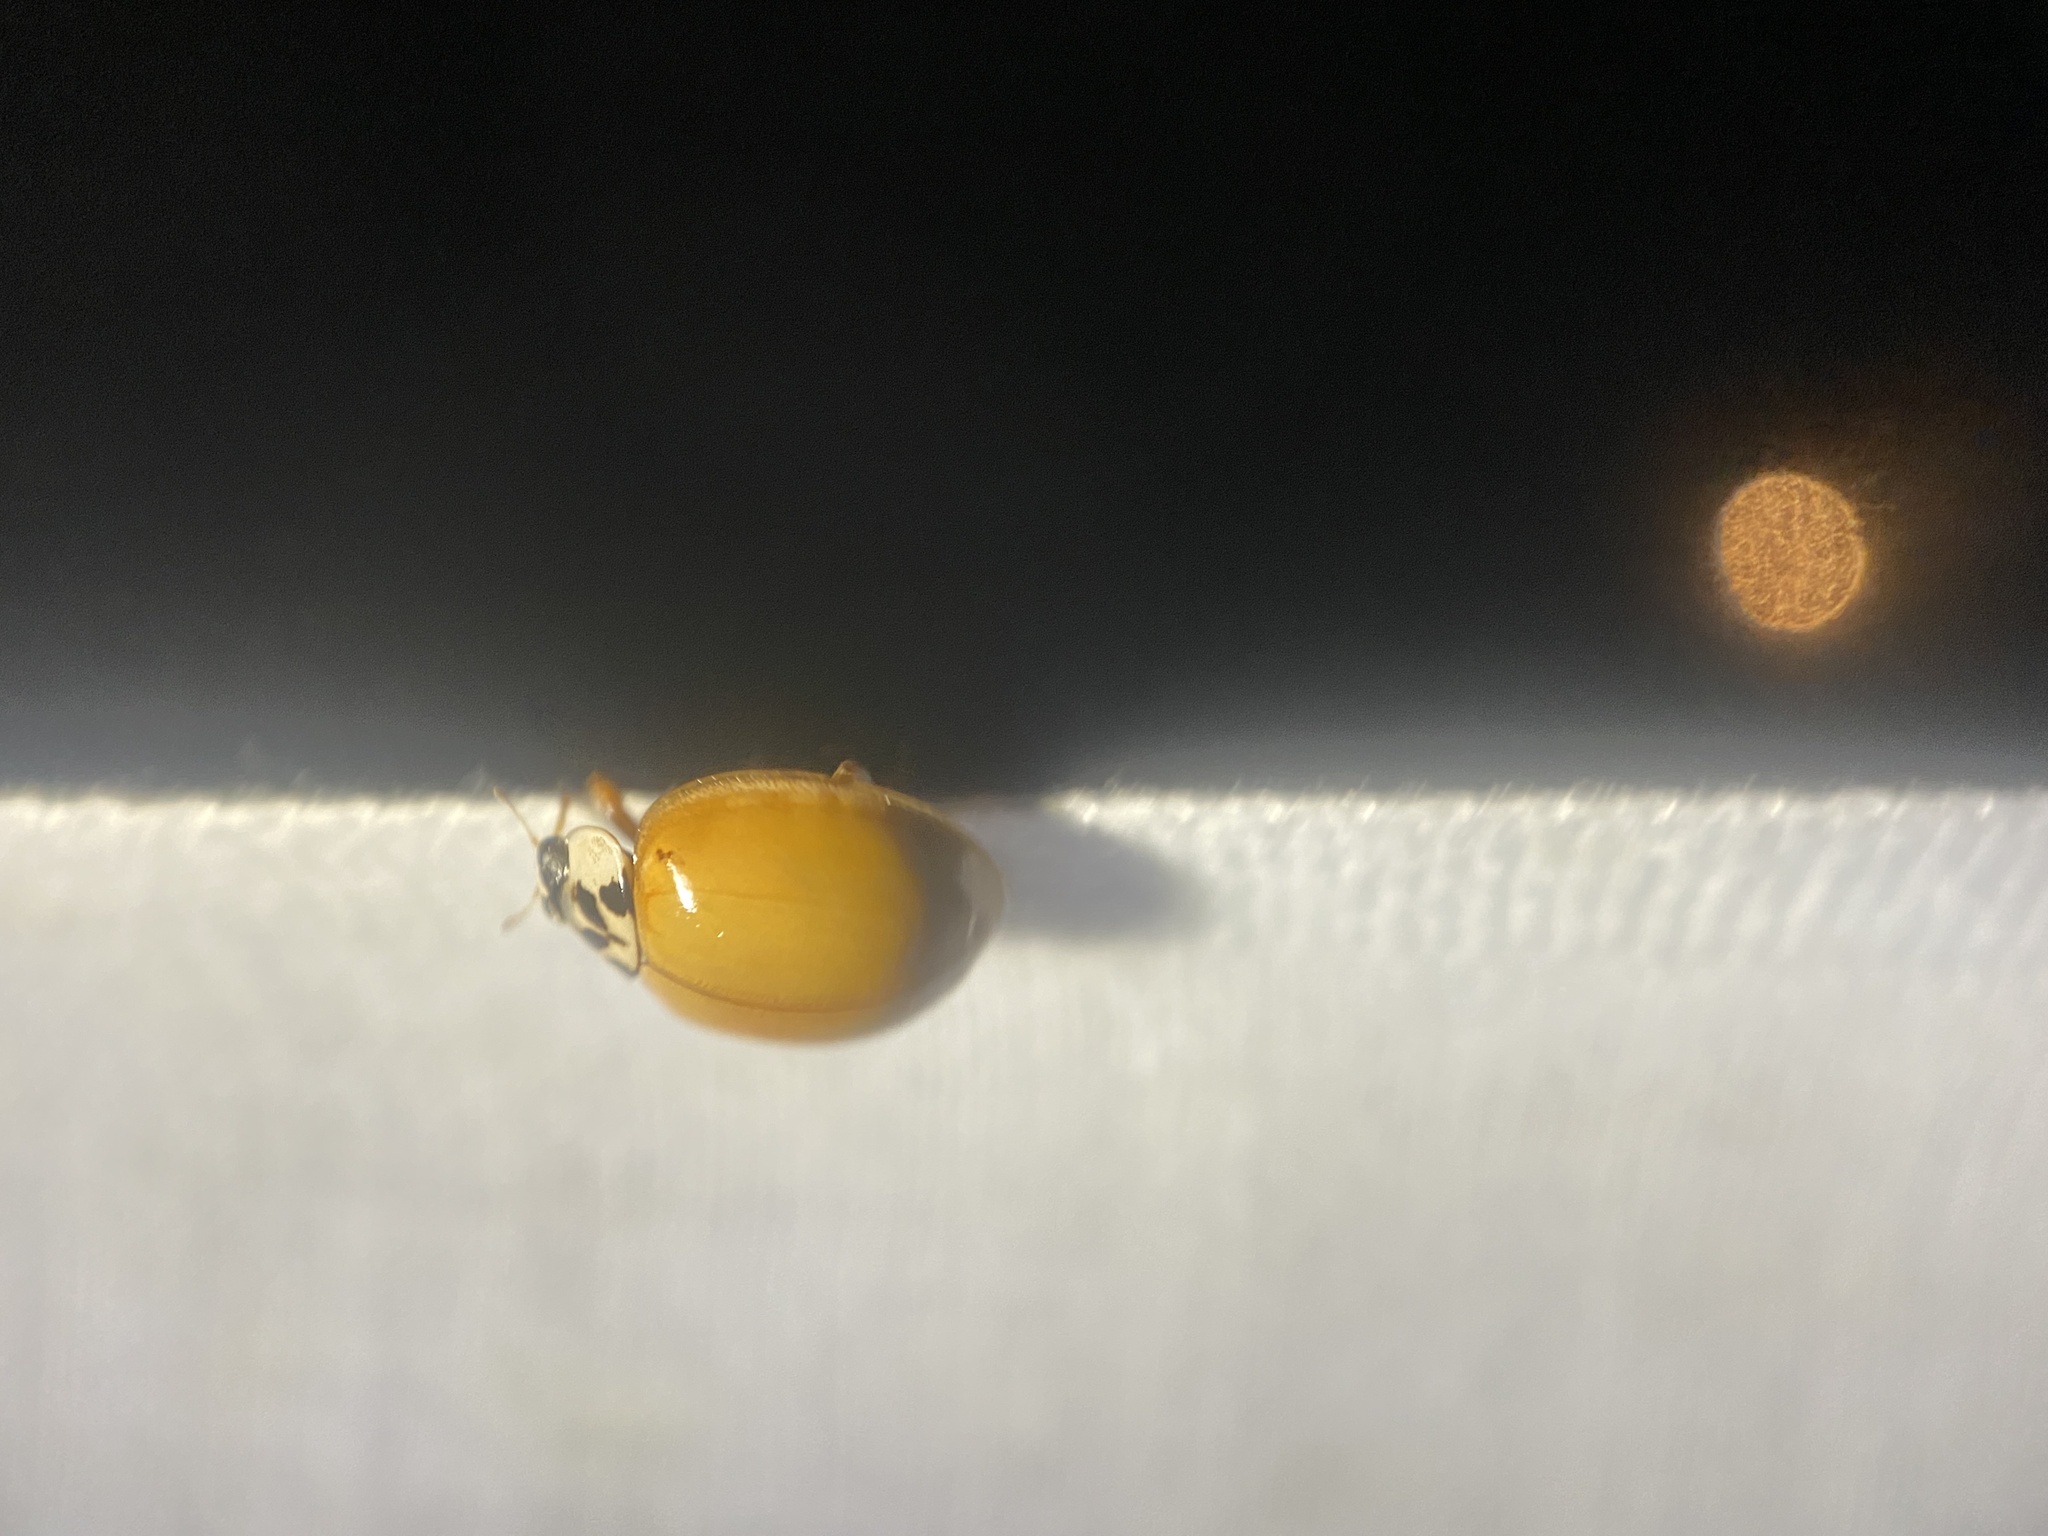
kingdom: Animalia
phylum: Arthropoda
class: Insecta
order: Coleoptera
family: Coccinellidae
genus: Harmonia
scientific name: Harmonia axyridis
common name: Harlequin ladybird
